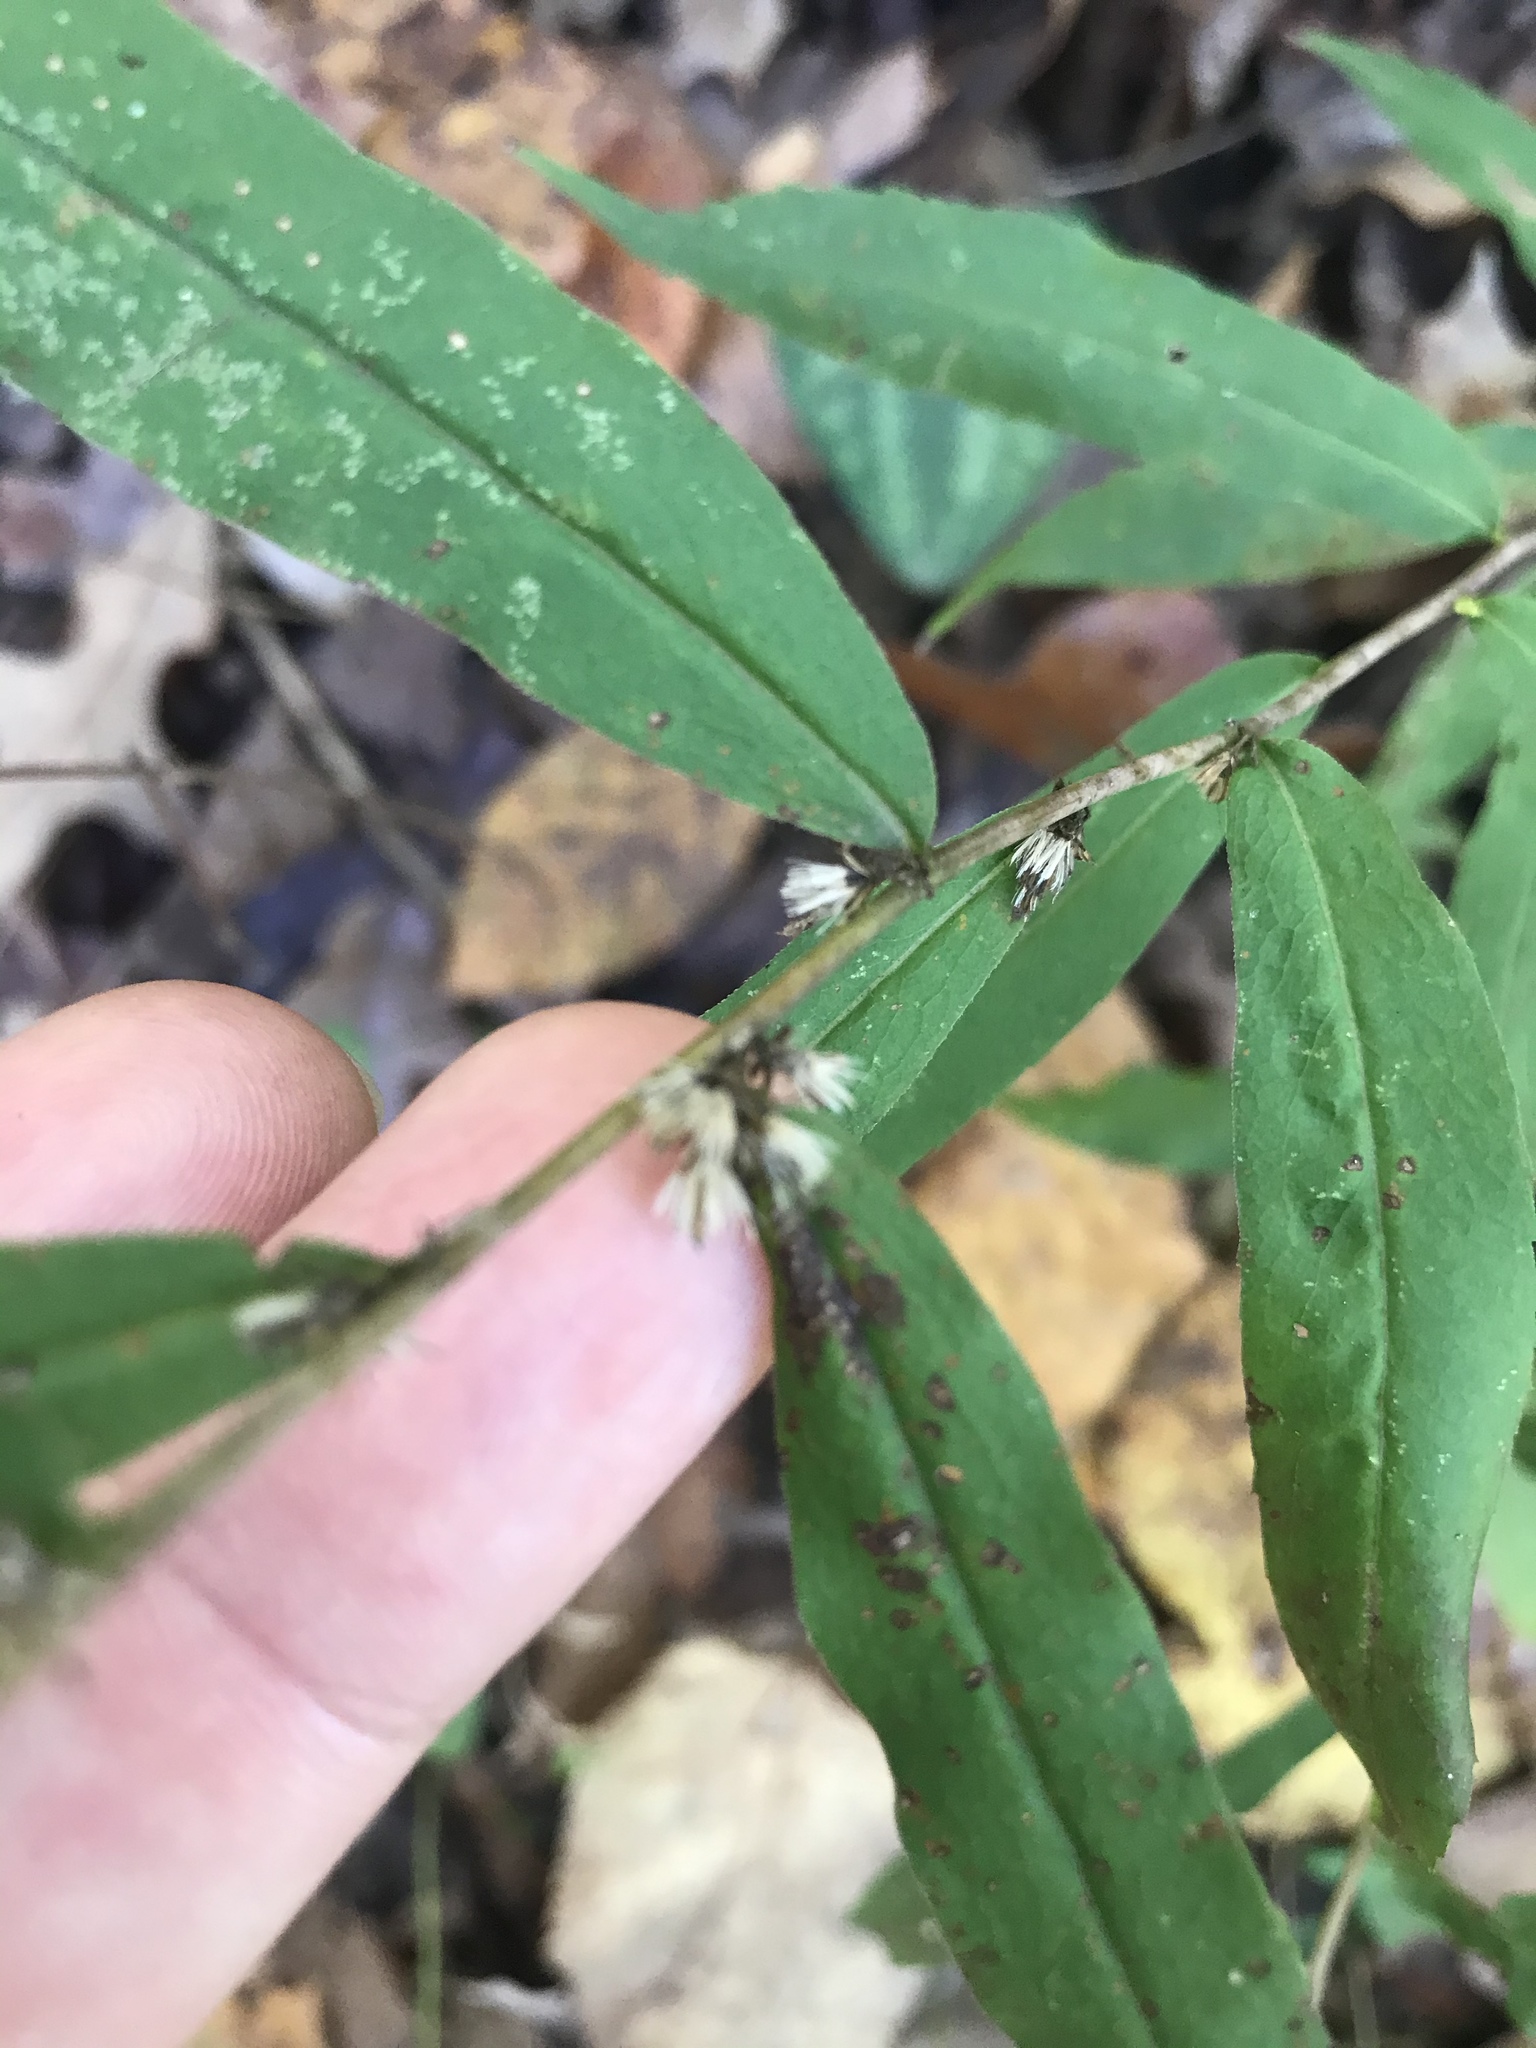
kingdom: Plantae
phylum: Tracheophyta
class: Magnoliopsida
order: Asterales
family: Asteraceae
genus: Solidago
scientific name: Solidago caesia
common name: Woodland goldenrod
